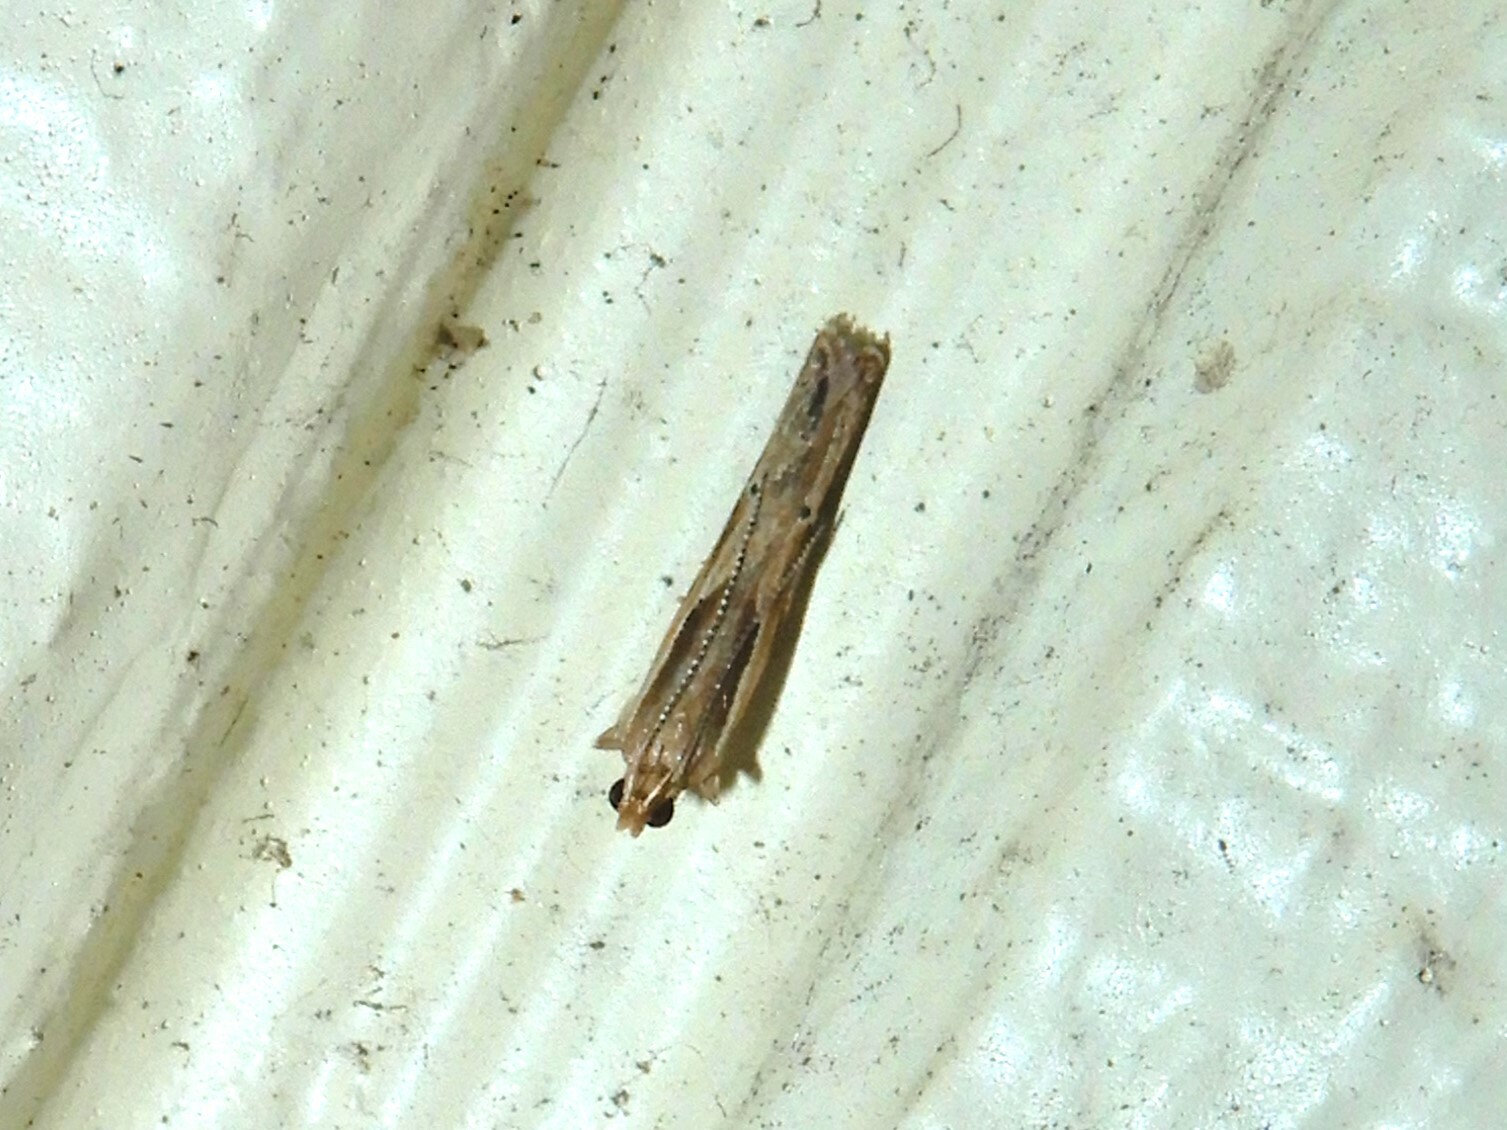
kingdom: Animalia
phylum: Arthropoda
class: Insecta
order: Lepidoptera
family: Depressariidae
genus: Eutorna
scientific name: Eutorna symmorpha
